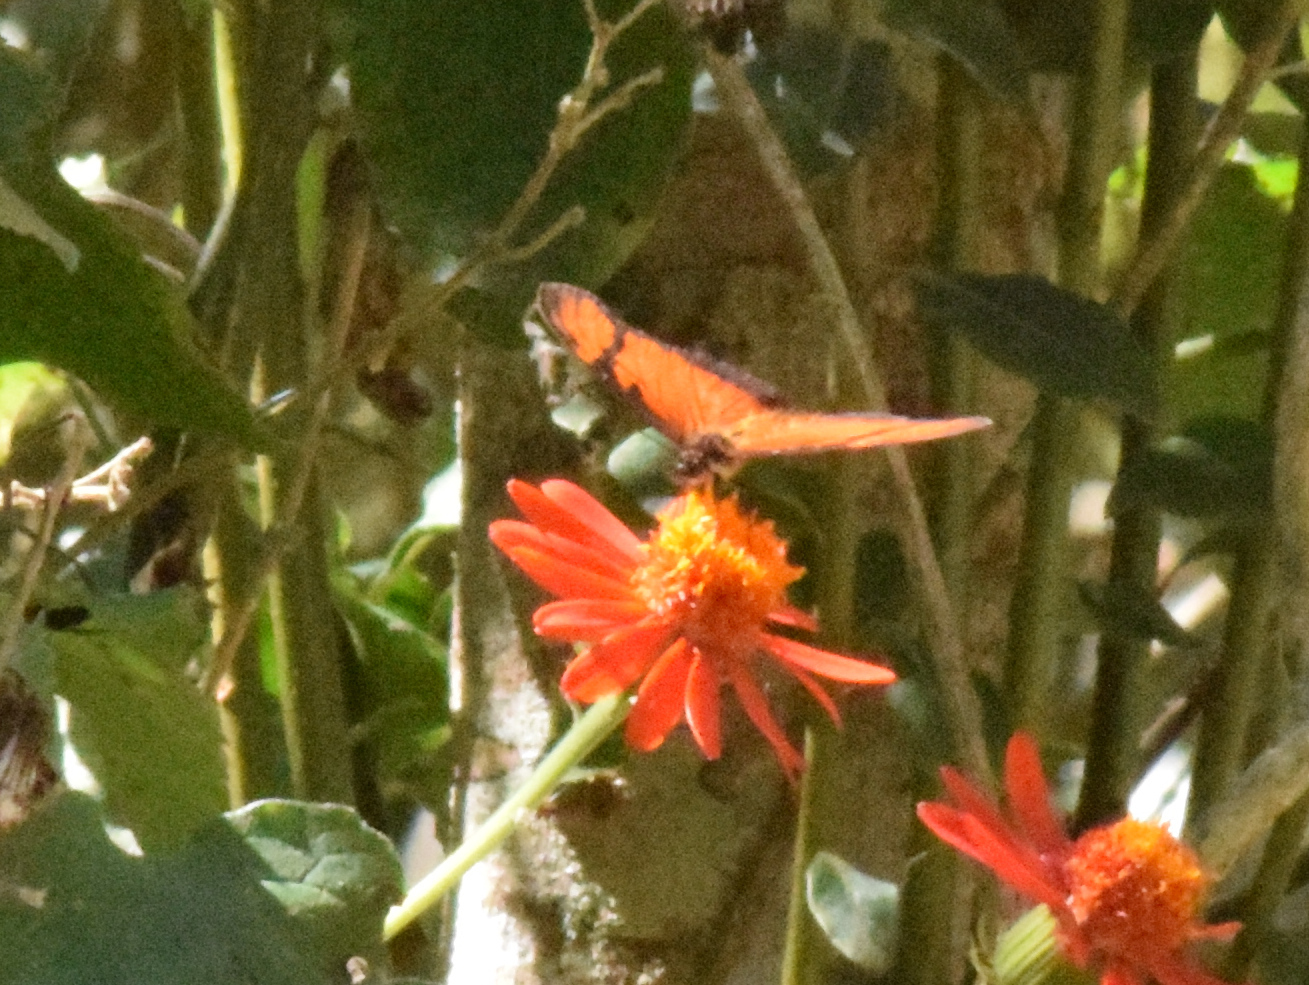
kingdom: Animalia
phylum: Arthropoda
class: Insecta
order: Lepidoptera
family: Nymphalidae
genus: Dione
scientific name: Dione juno
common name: Juno silverspot
